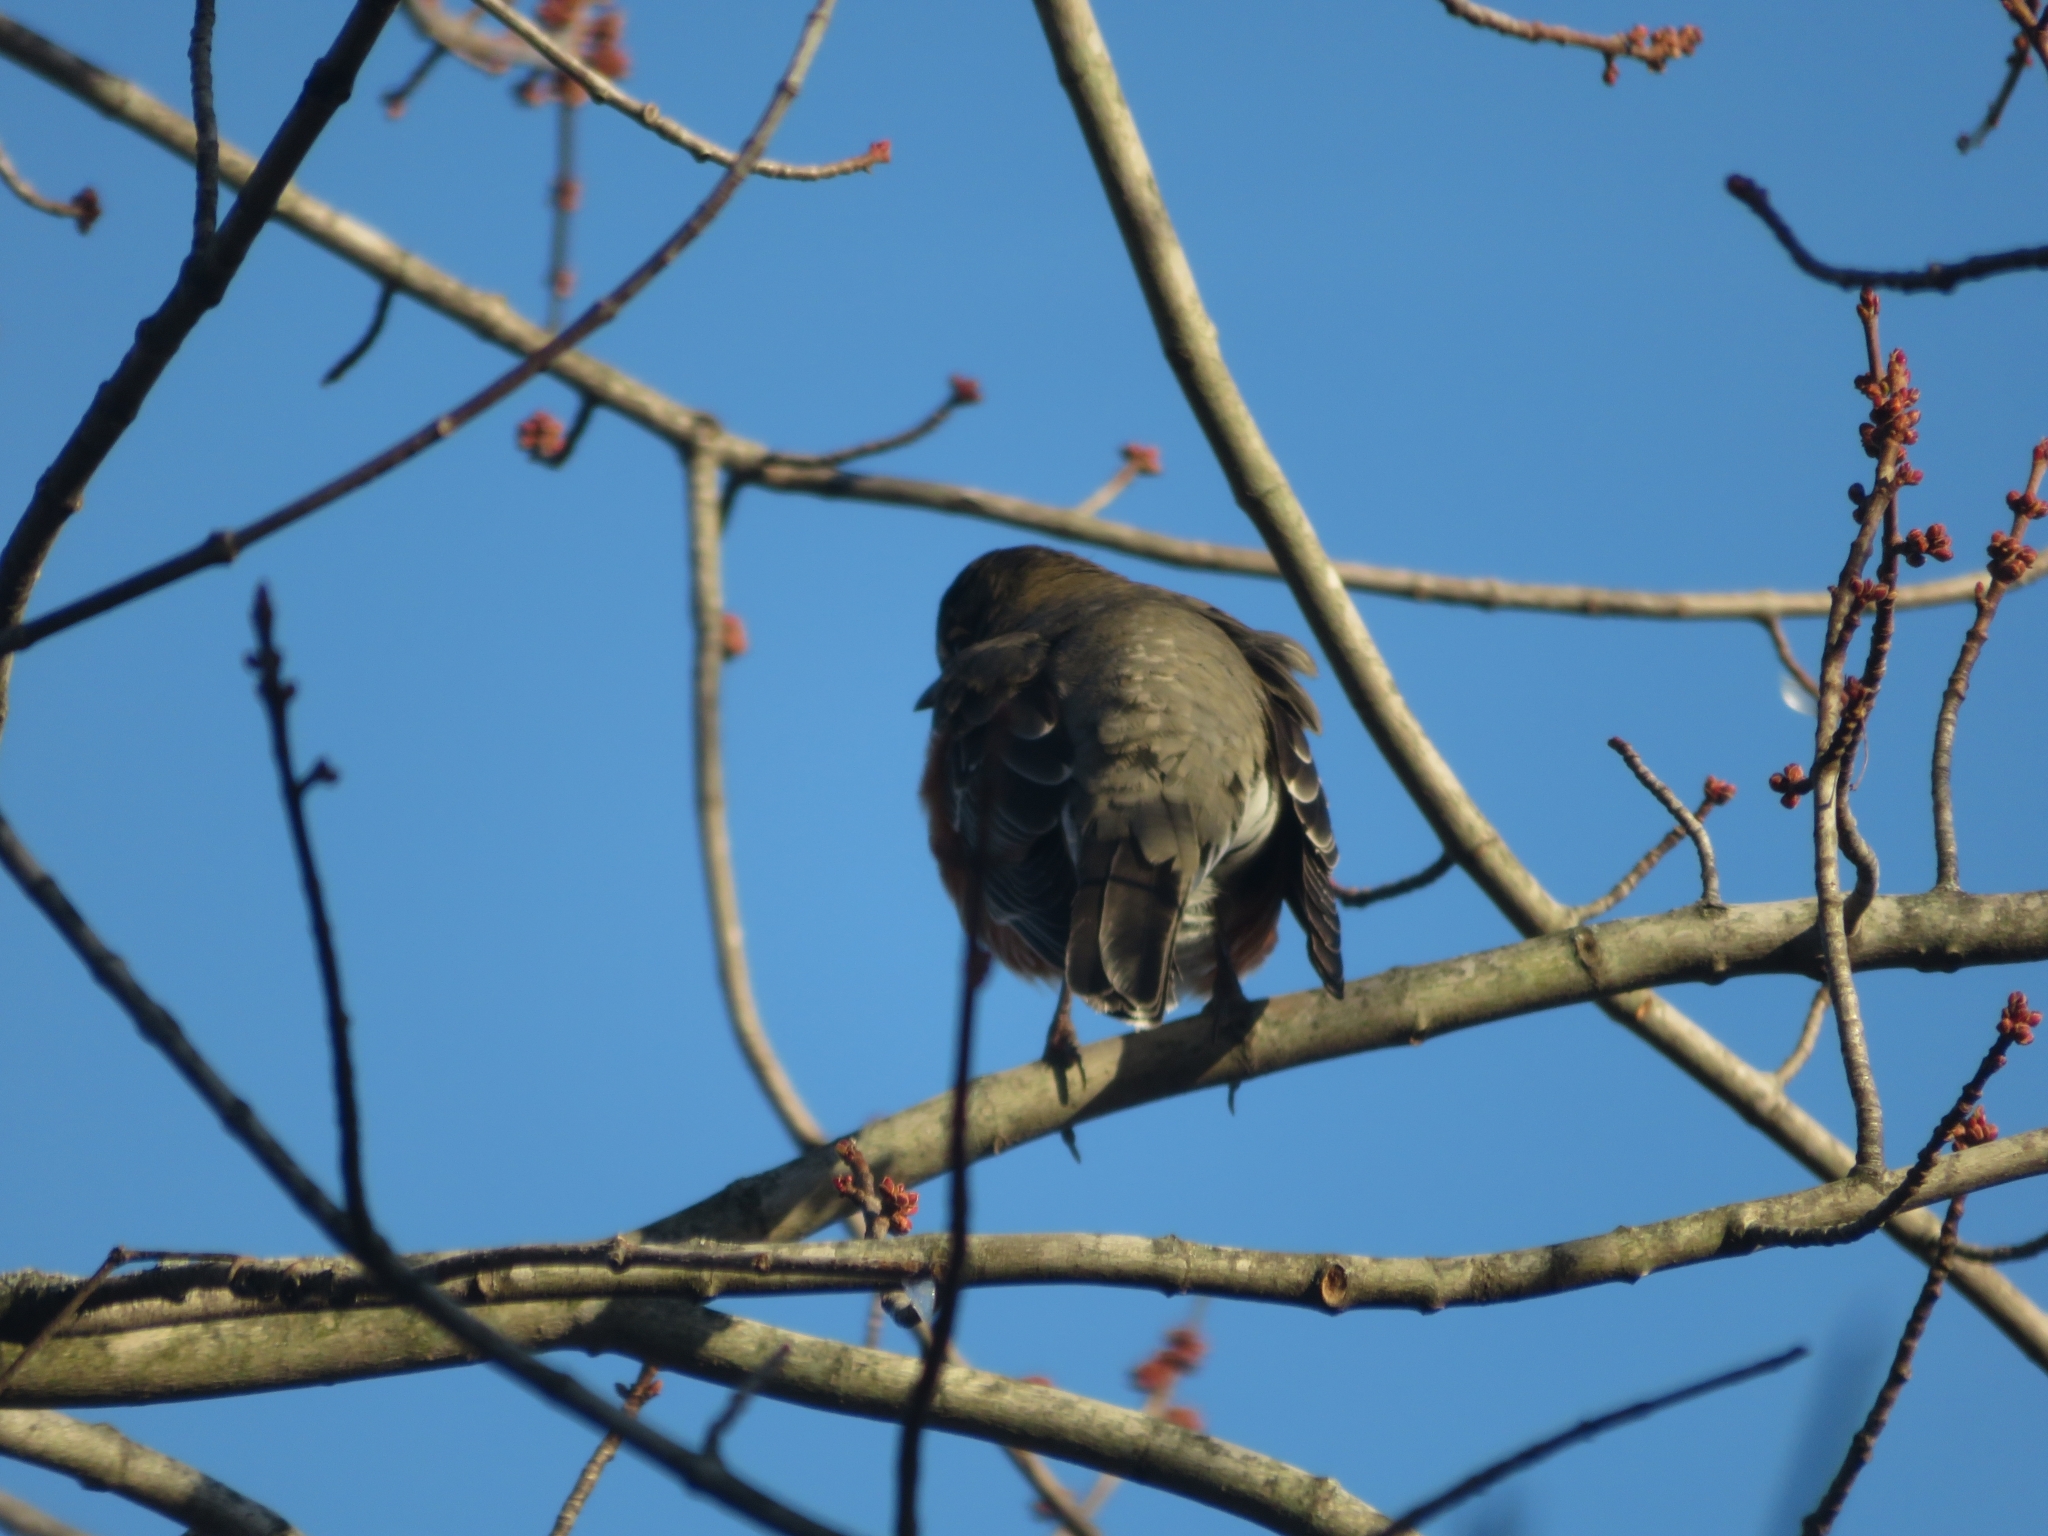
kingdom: Animalia
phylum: Chordata
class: Aves
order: Passeriformes
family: Turdidae
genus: Turdus
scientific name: Turdus migratorius
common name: American robin
